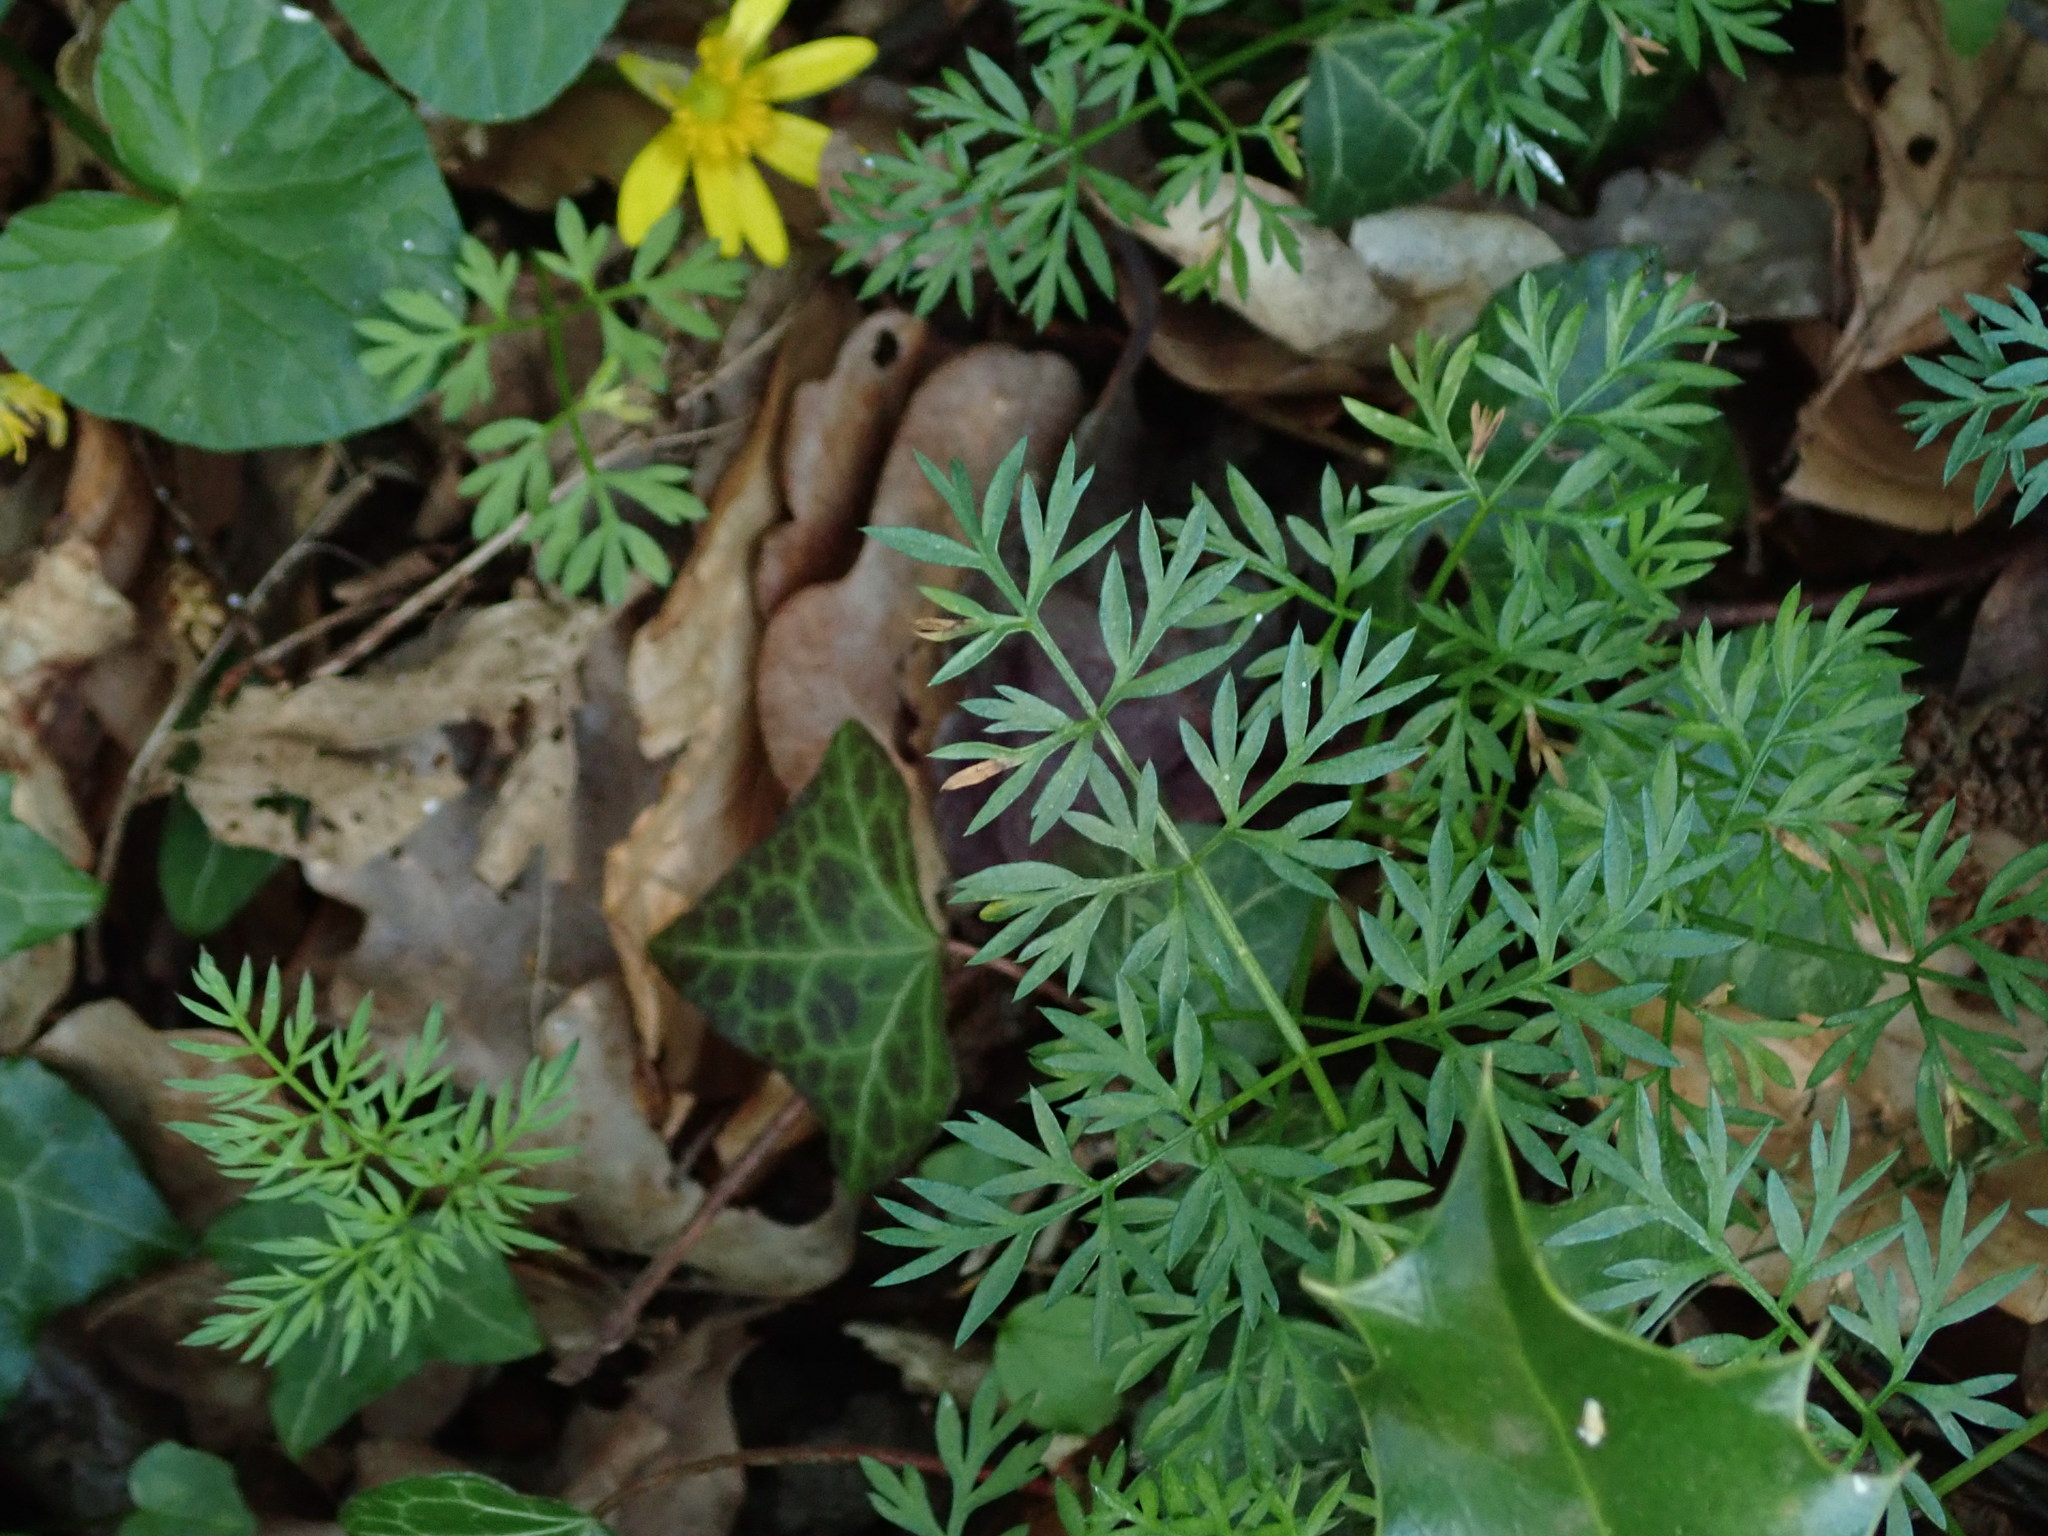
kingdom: Plantae
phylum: Tracheophyta
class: Magnoliopsida
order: Apiales
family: Apiaceae
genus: Conopodium
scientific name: Conopodium majus
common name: Pignut
